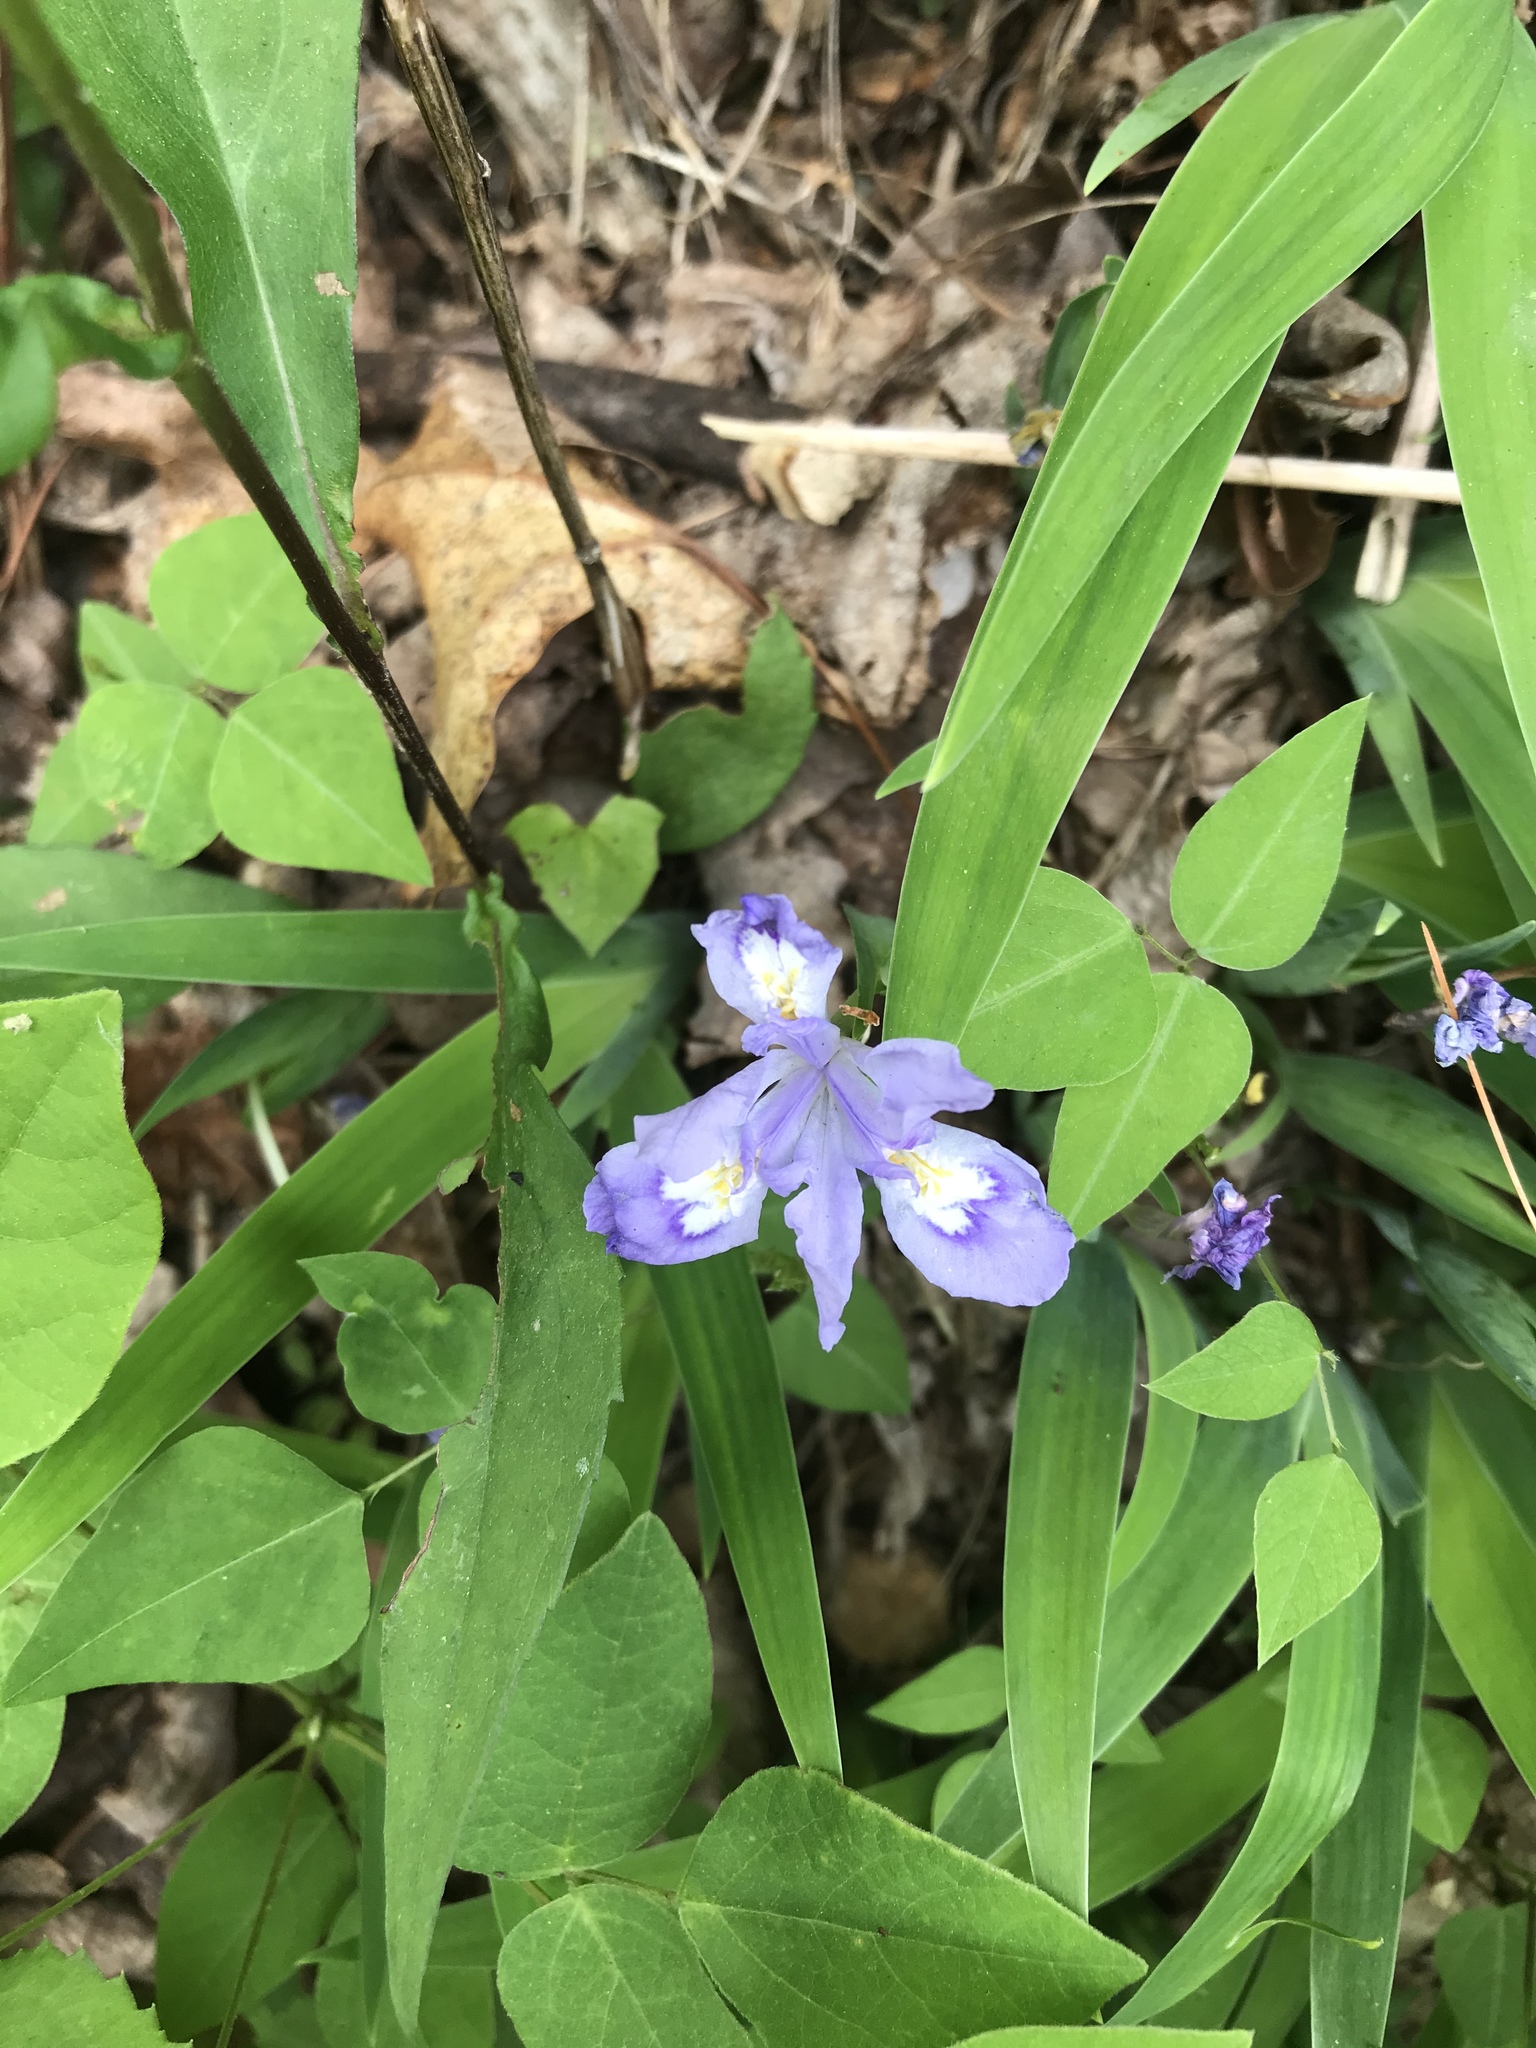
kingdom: Plantae
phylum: Tracheophyta
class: Liliopsida
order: Asparagales
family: Iridaceae
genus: Iris
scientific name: Iris cristata
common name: Crested iris
